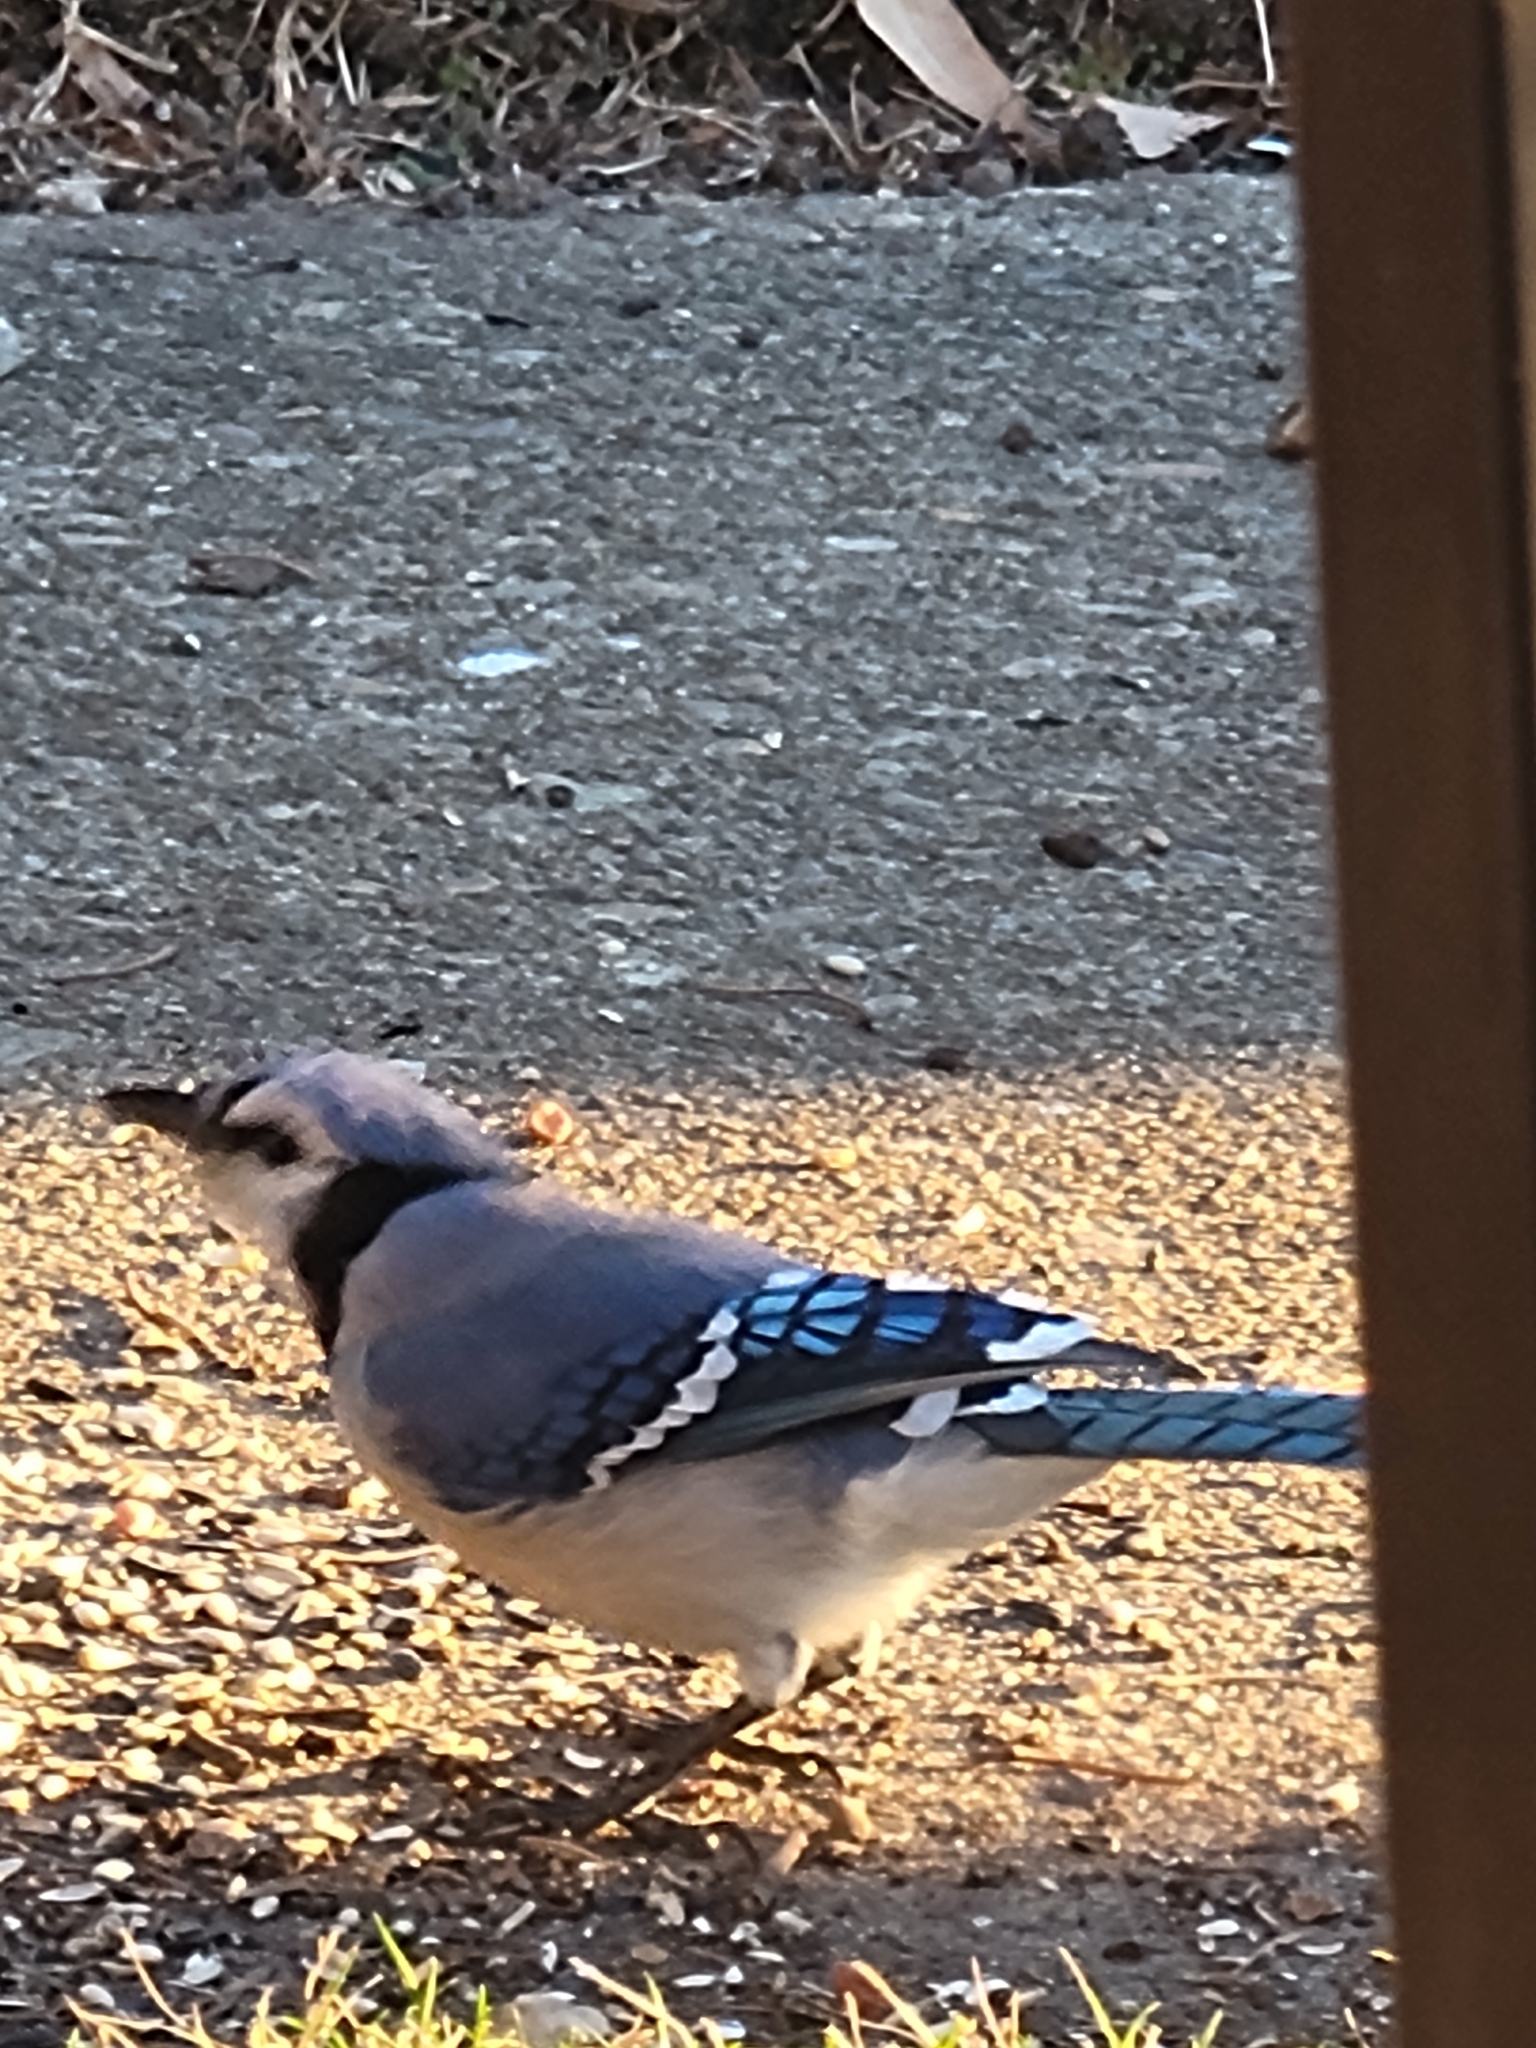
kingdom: Animalia
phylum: Chordata
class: Aves
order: Passeriformes
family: Corvidae
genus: Cyanocitta
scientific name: Cyanocitta cristata
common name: Blue jay
